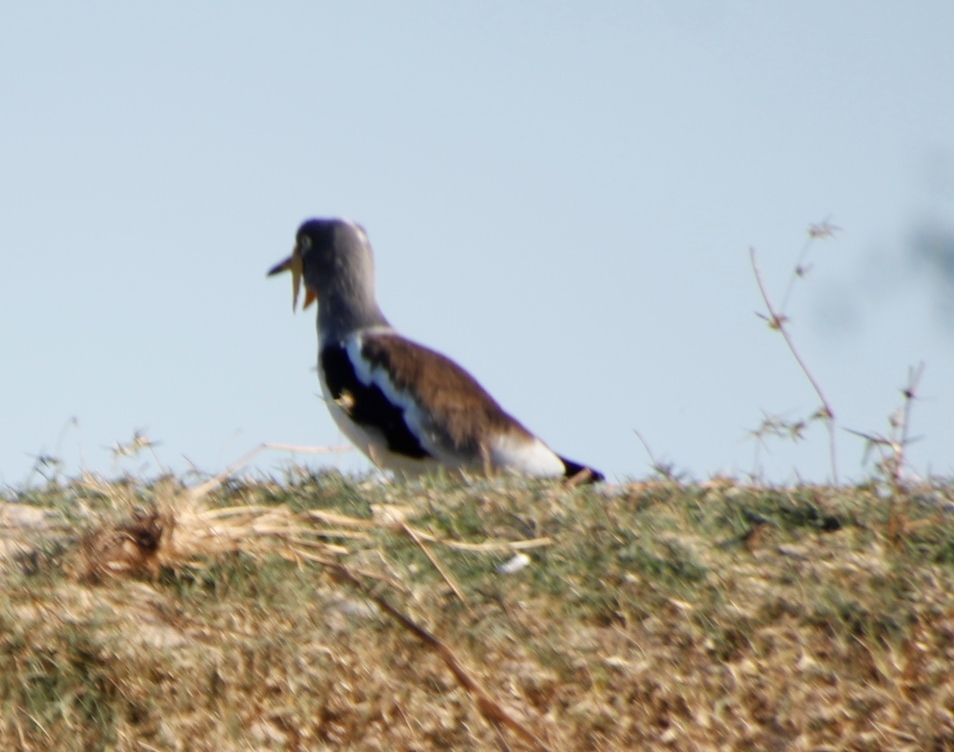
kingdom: Animalia
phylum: Chordata
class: Aves
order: Charadriiformes
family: Charadriidae
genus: Vanellus
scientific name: Vanellus albiceps
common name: White-crowned lapwing
